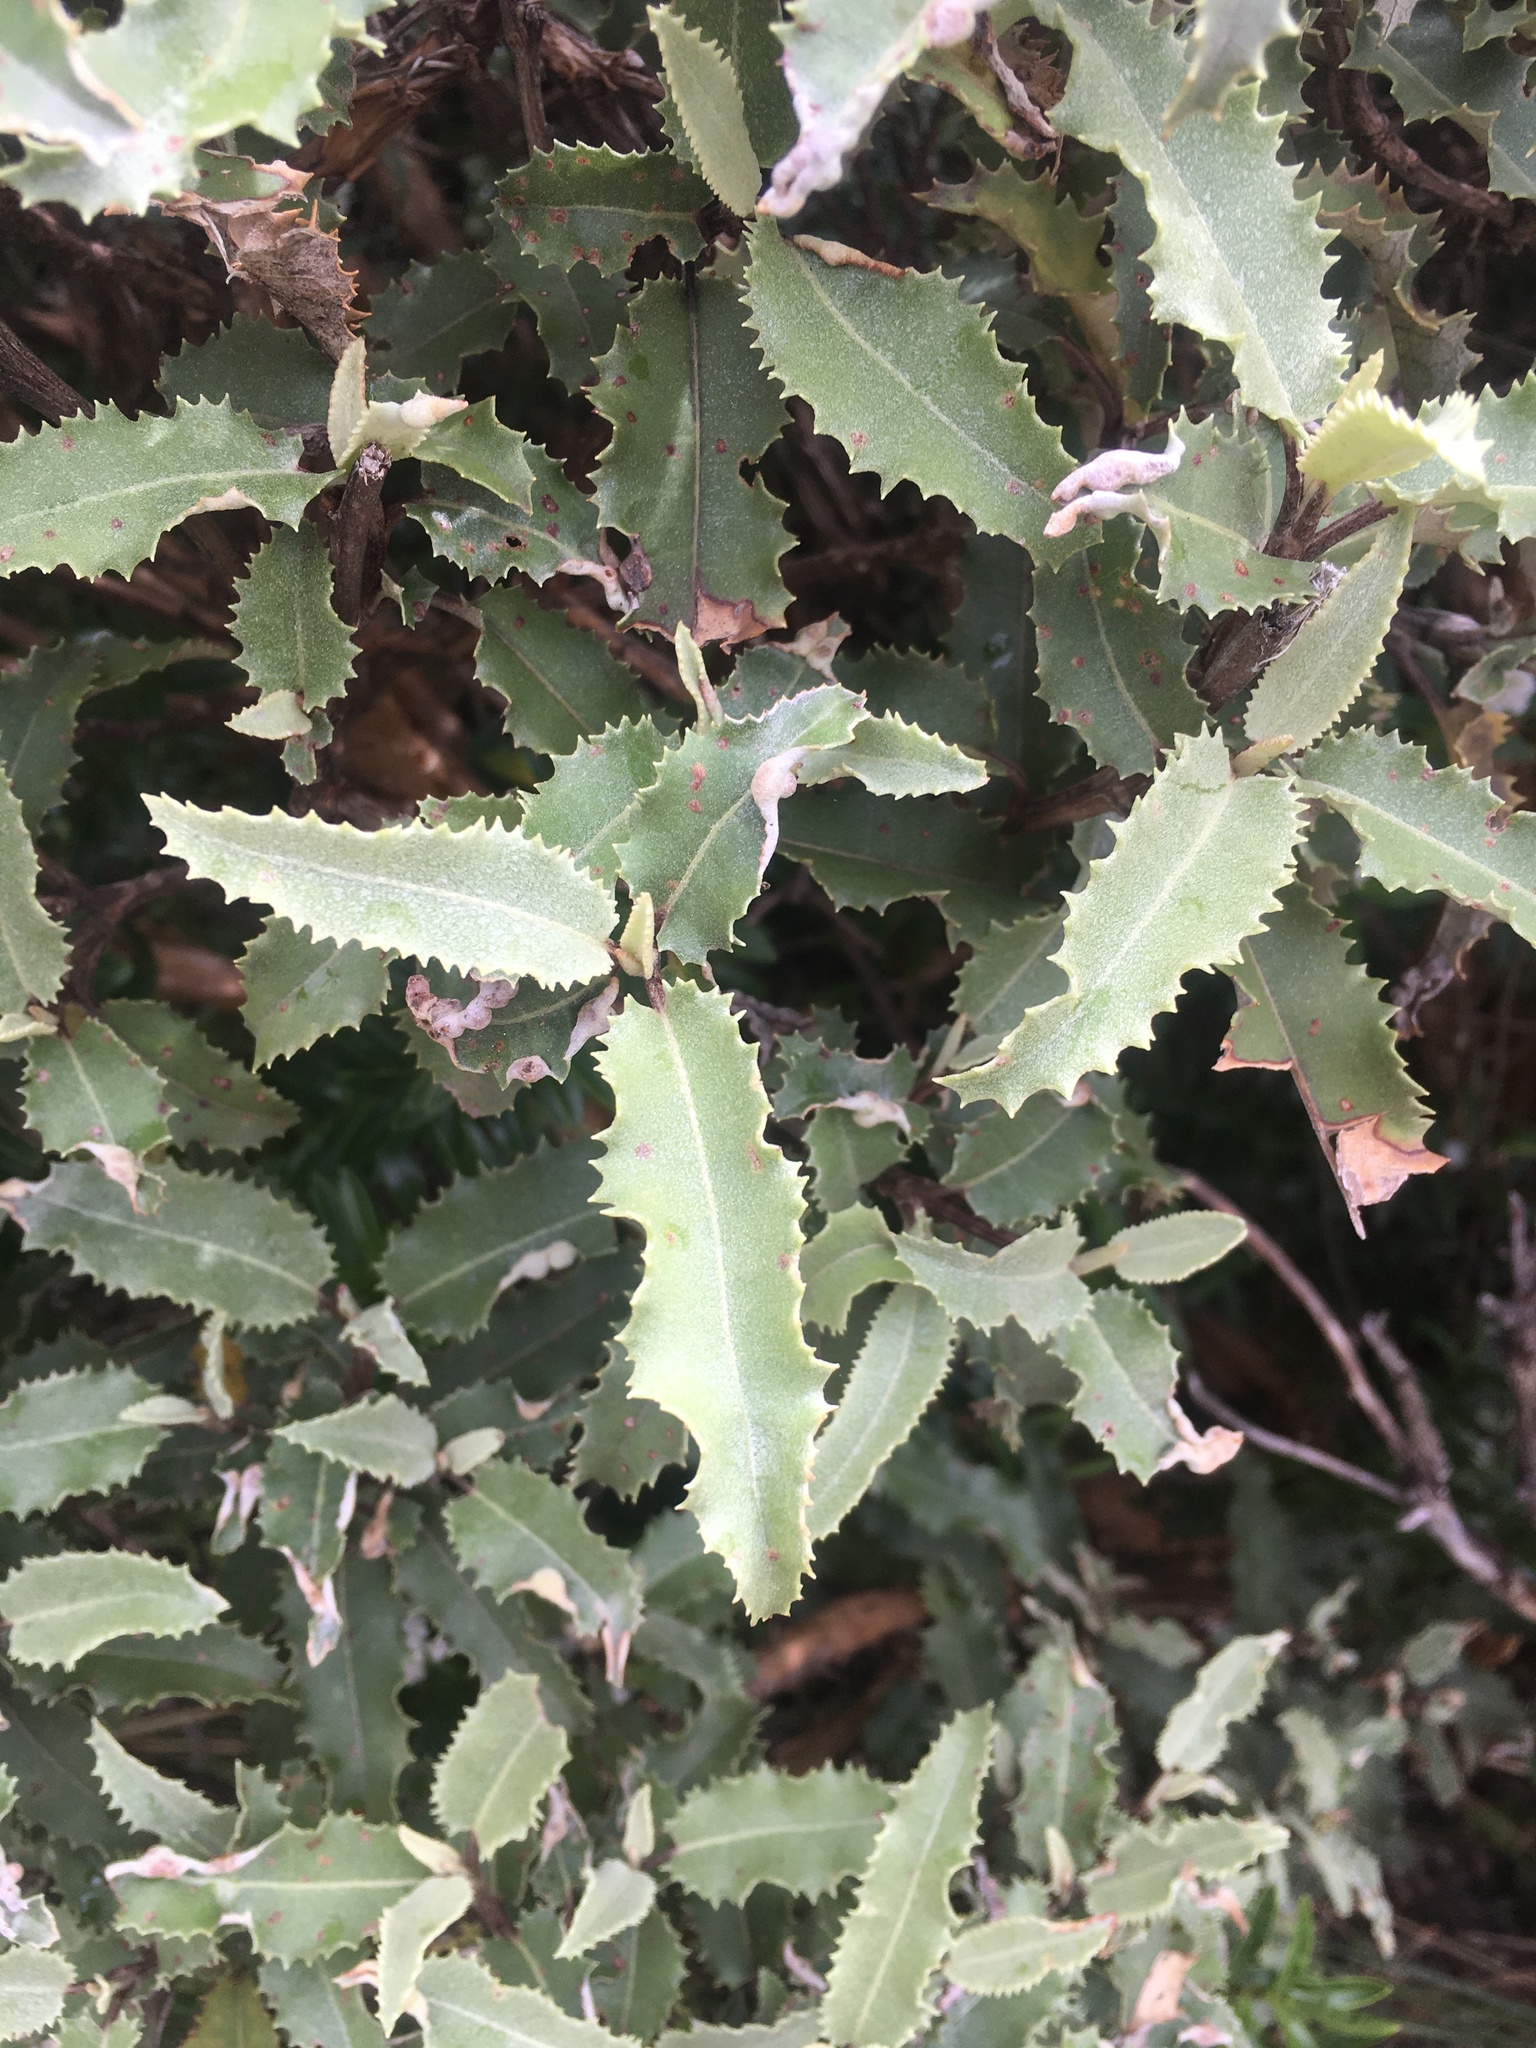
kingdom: Plantae
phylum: Tracheophyta
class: Magnoliopsida
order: Asterales
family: Asteraceae
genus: Olearia
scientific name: Olearia ilicifolia
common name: Maori-holly
